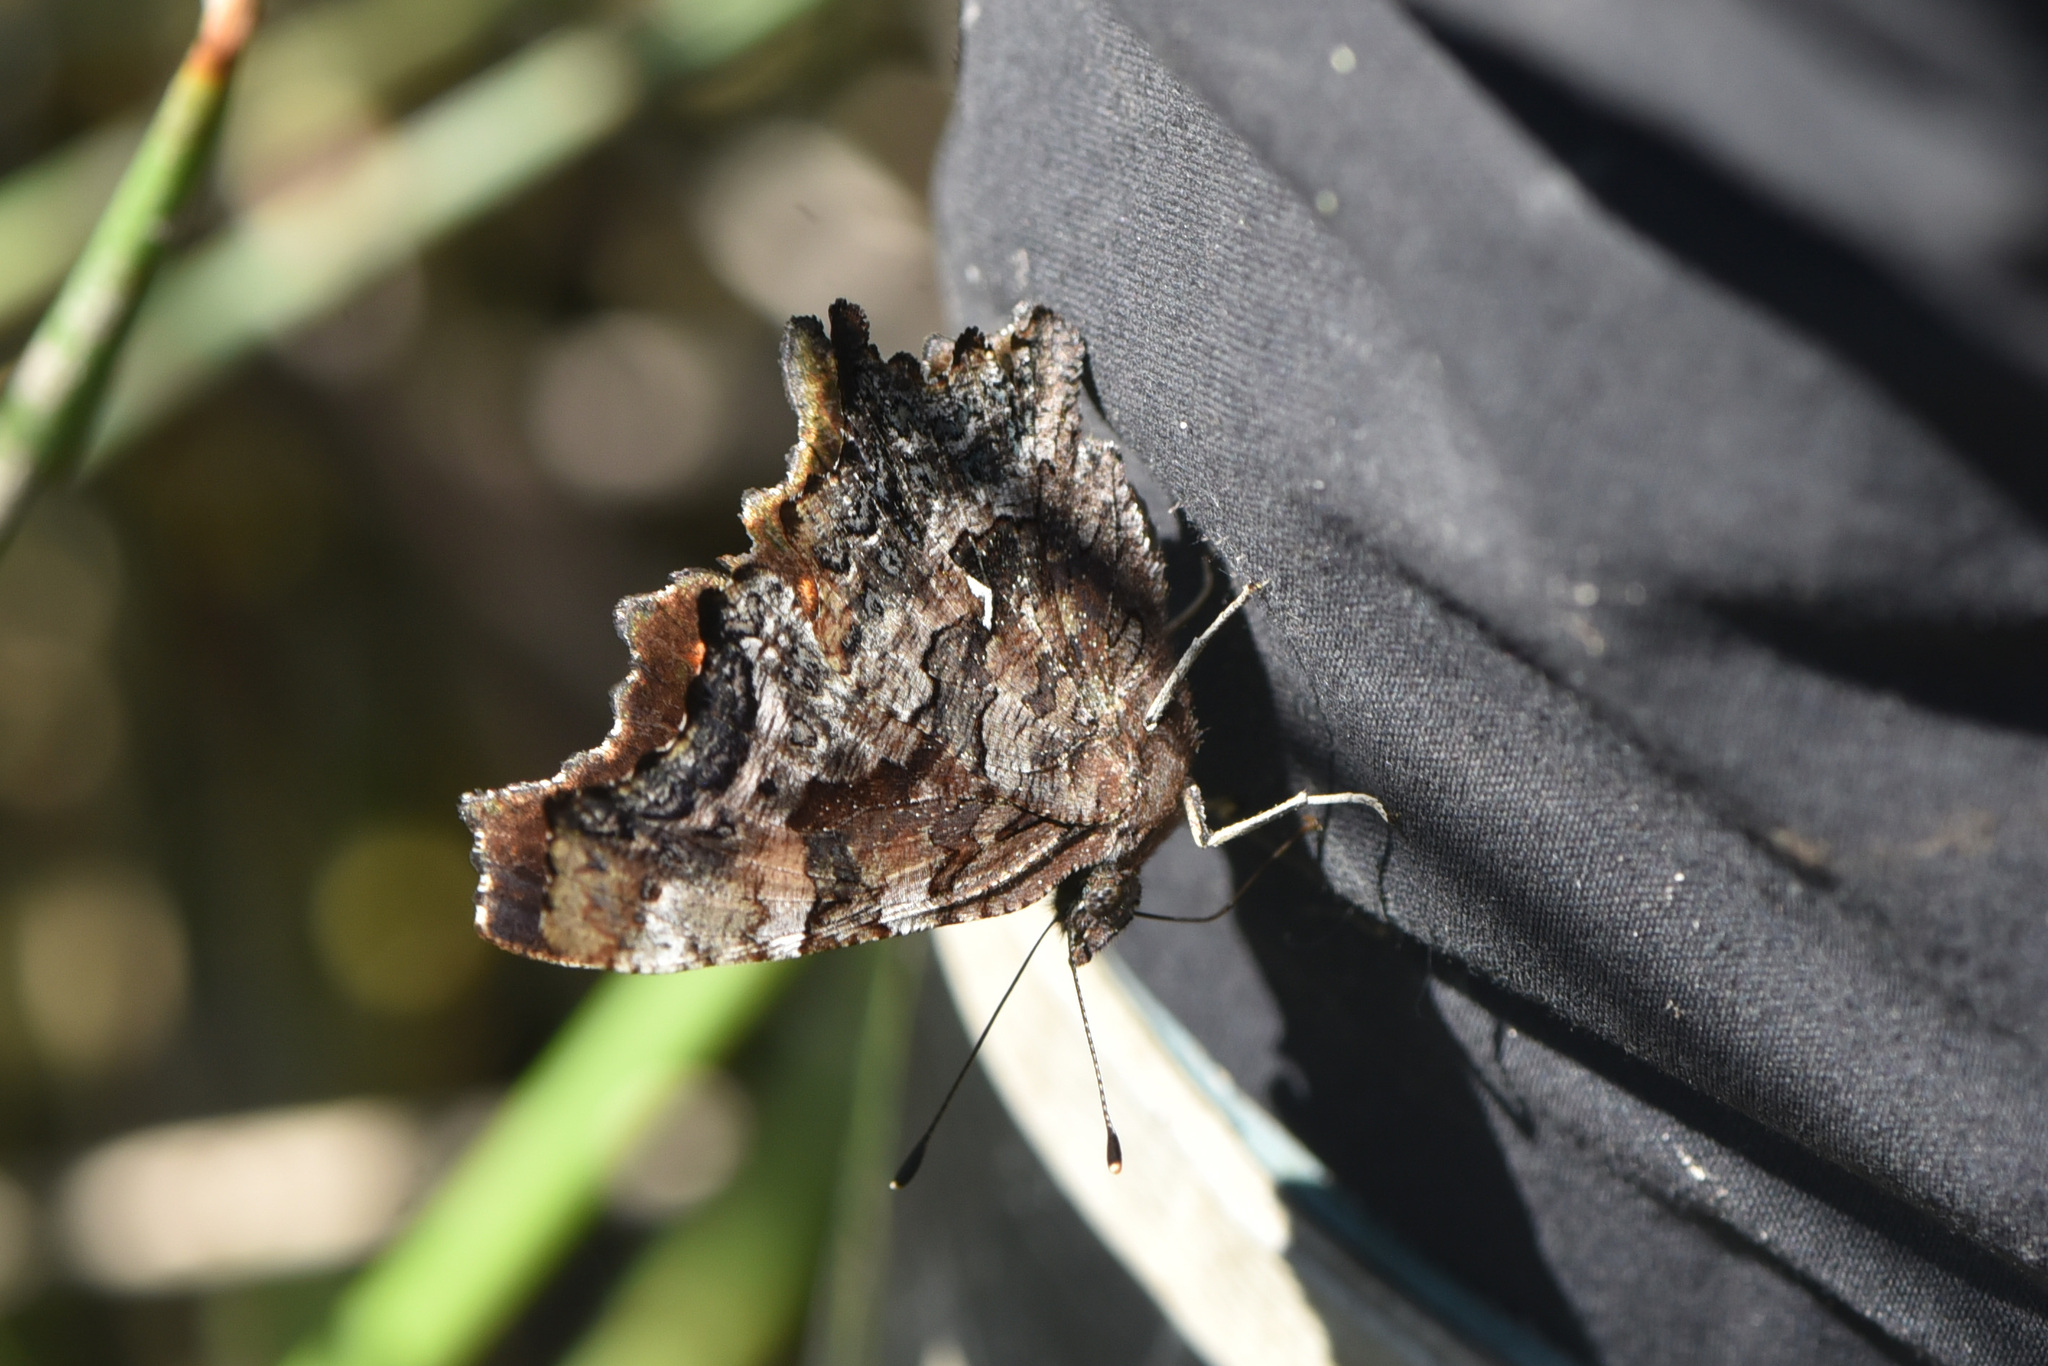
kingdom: Animalia
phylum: Arthropoda
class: Insecta
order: Lepidoptera
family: Nymphalidae
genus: Polygonia
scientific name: Polygonia faunus
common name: Green comma
